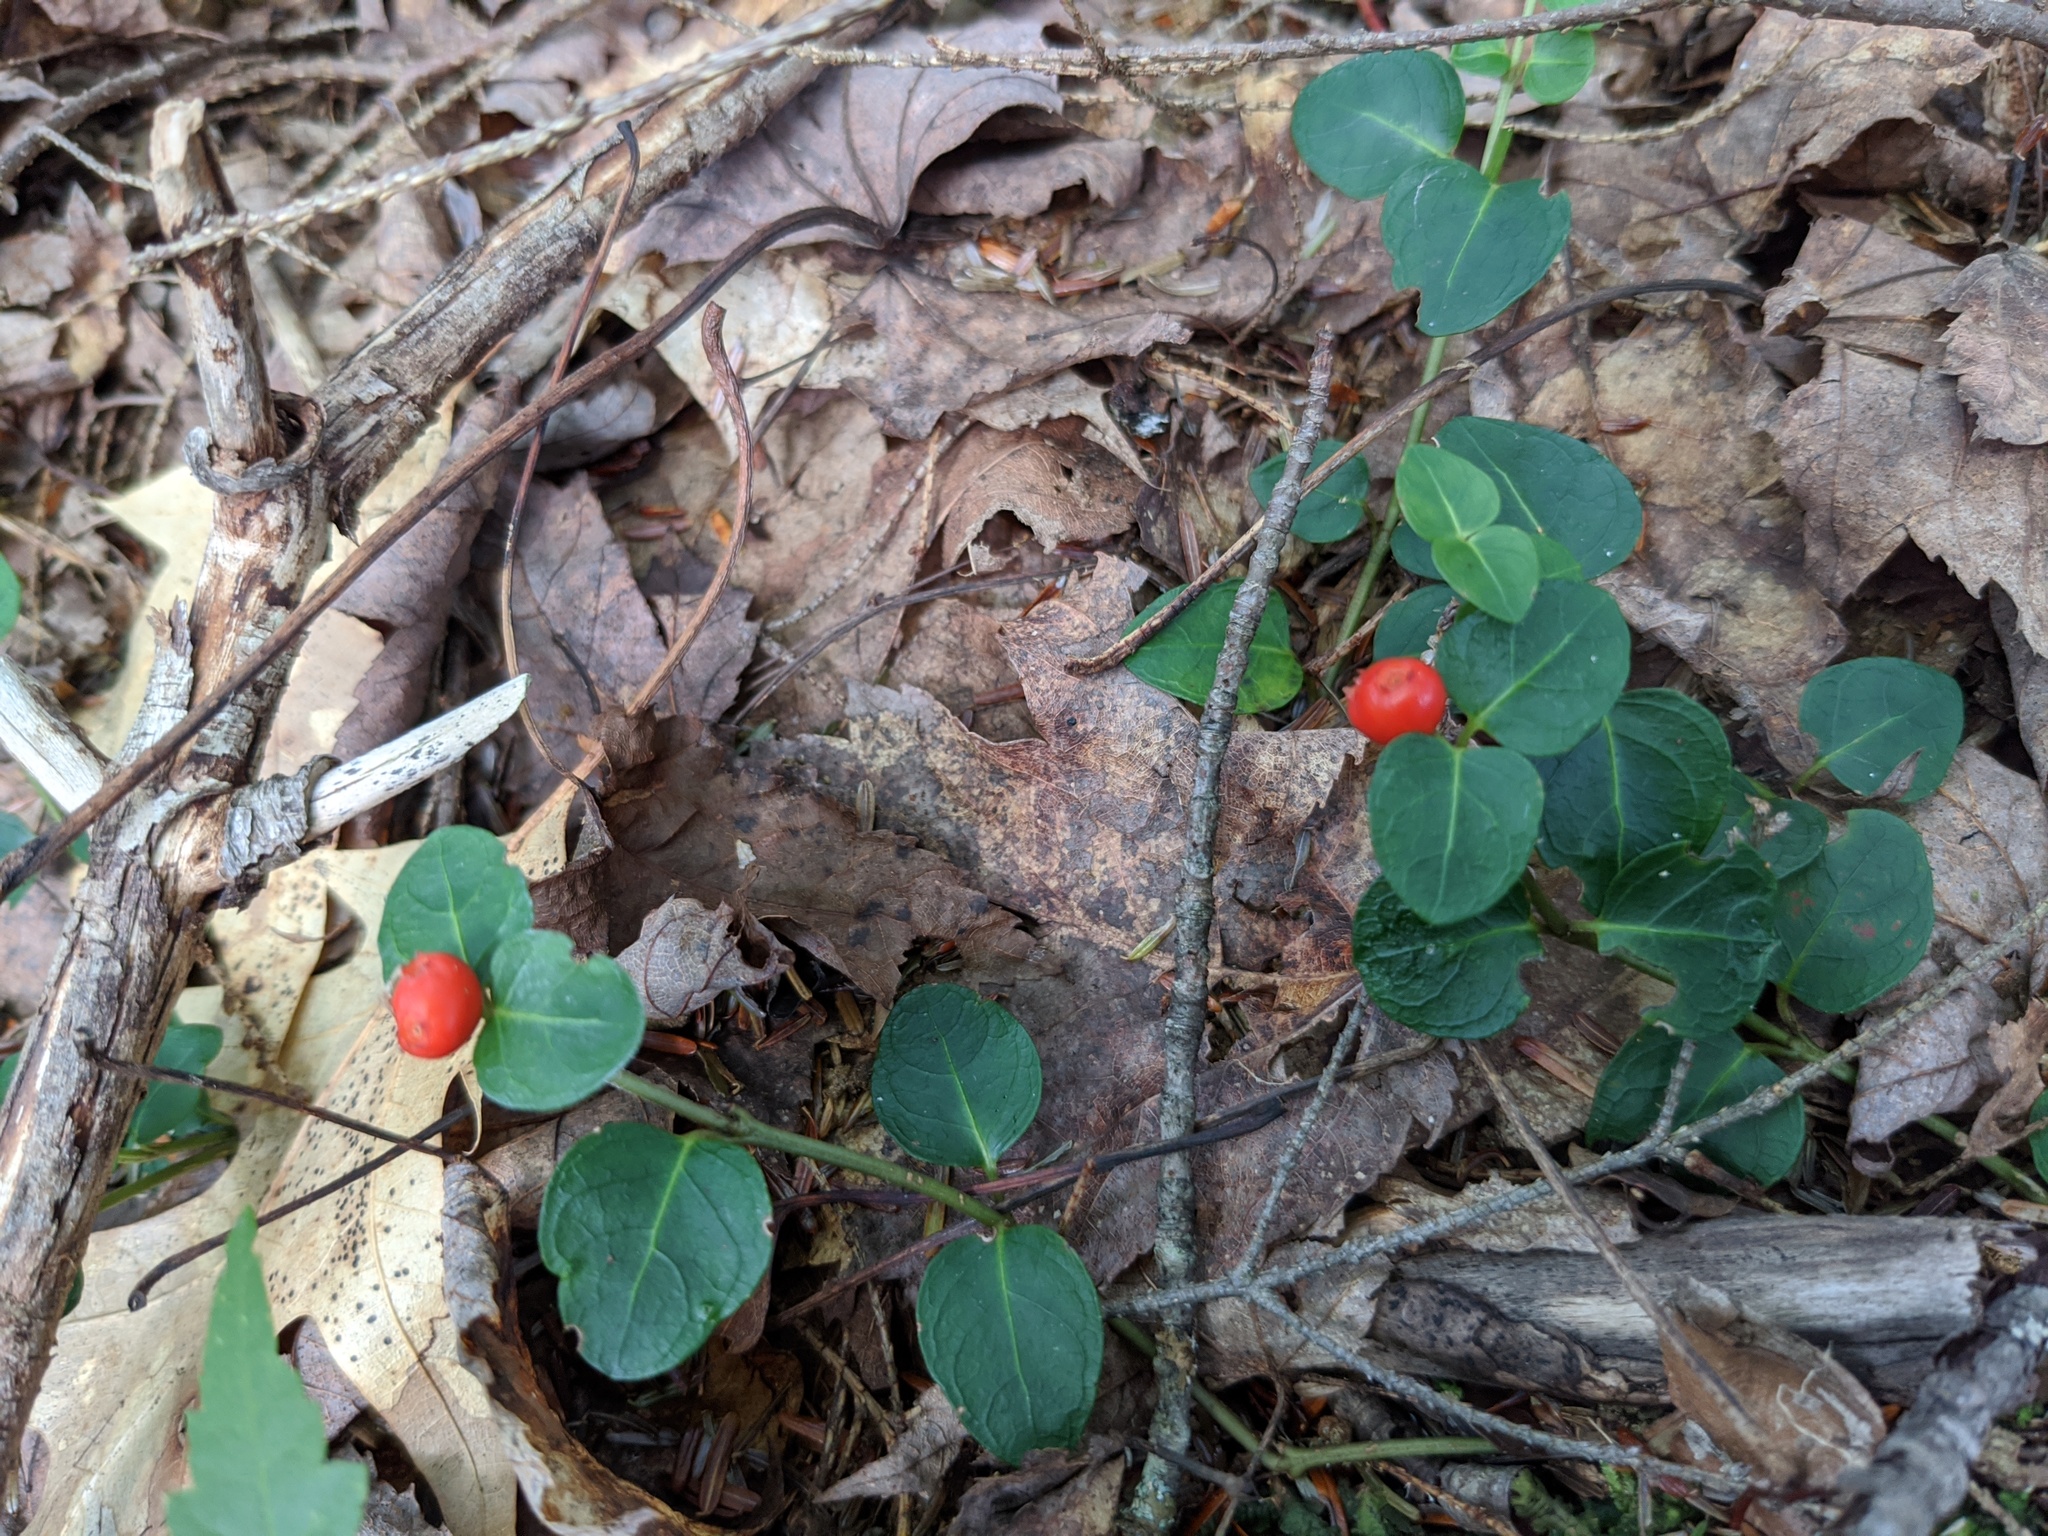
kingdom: Plantae
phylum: Tracheophyta
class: Magnoliopsida
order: Gentianales
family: Rubiaceae
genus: Mitchella
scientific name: Mitchella repens
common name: Partridge-berry
